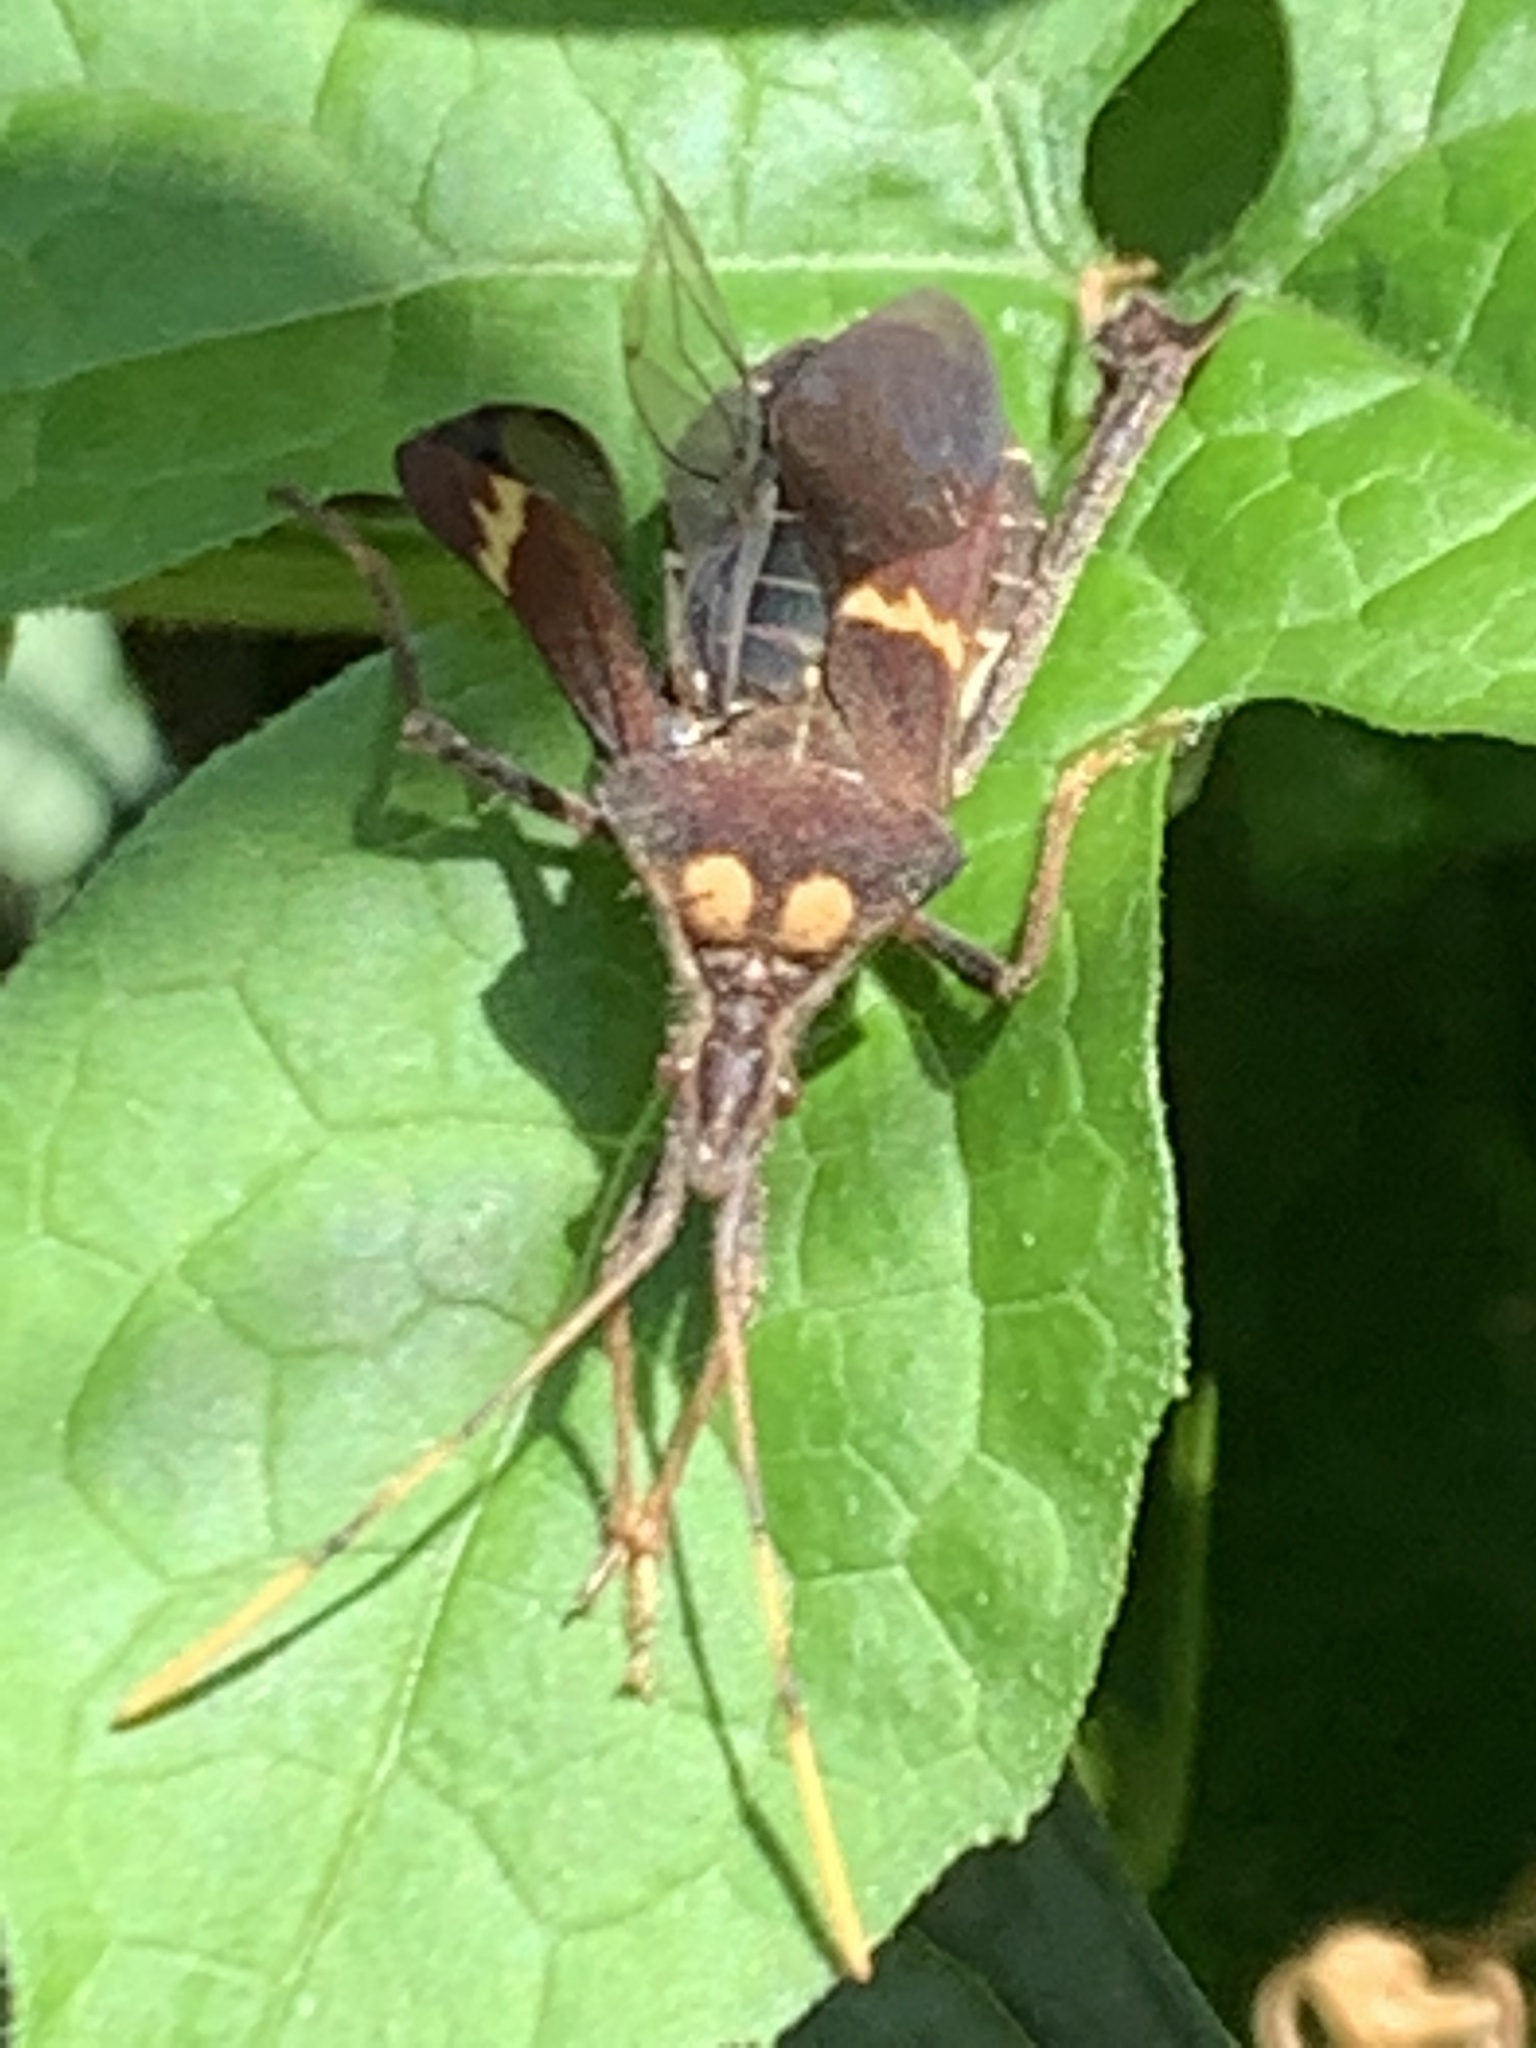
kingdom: Animalia
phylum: Arthropoda
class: Insecta
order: Hemiptera
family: Coreidae
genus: Leptoglossus
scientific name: Leptoglossus zonatus
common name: Large-legged bug
